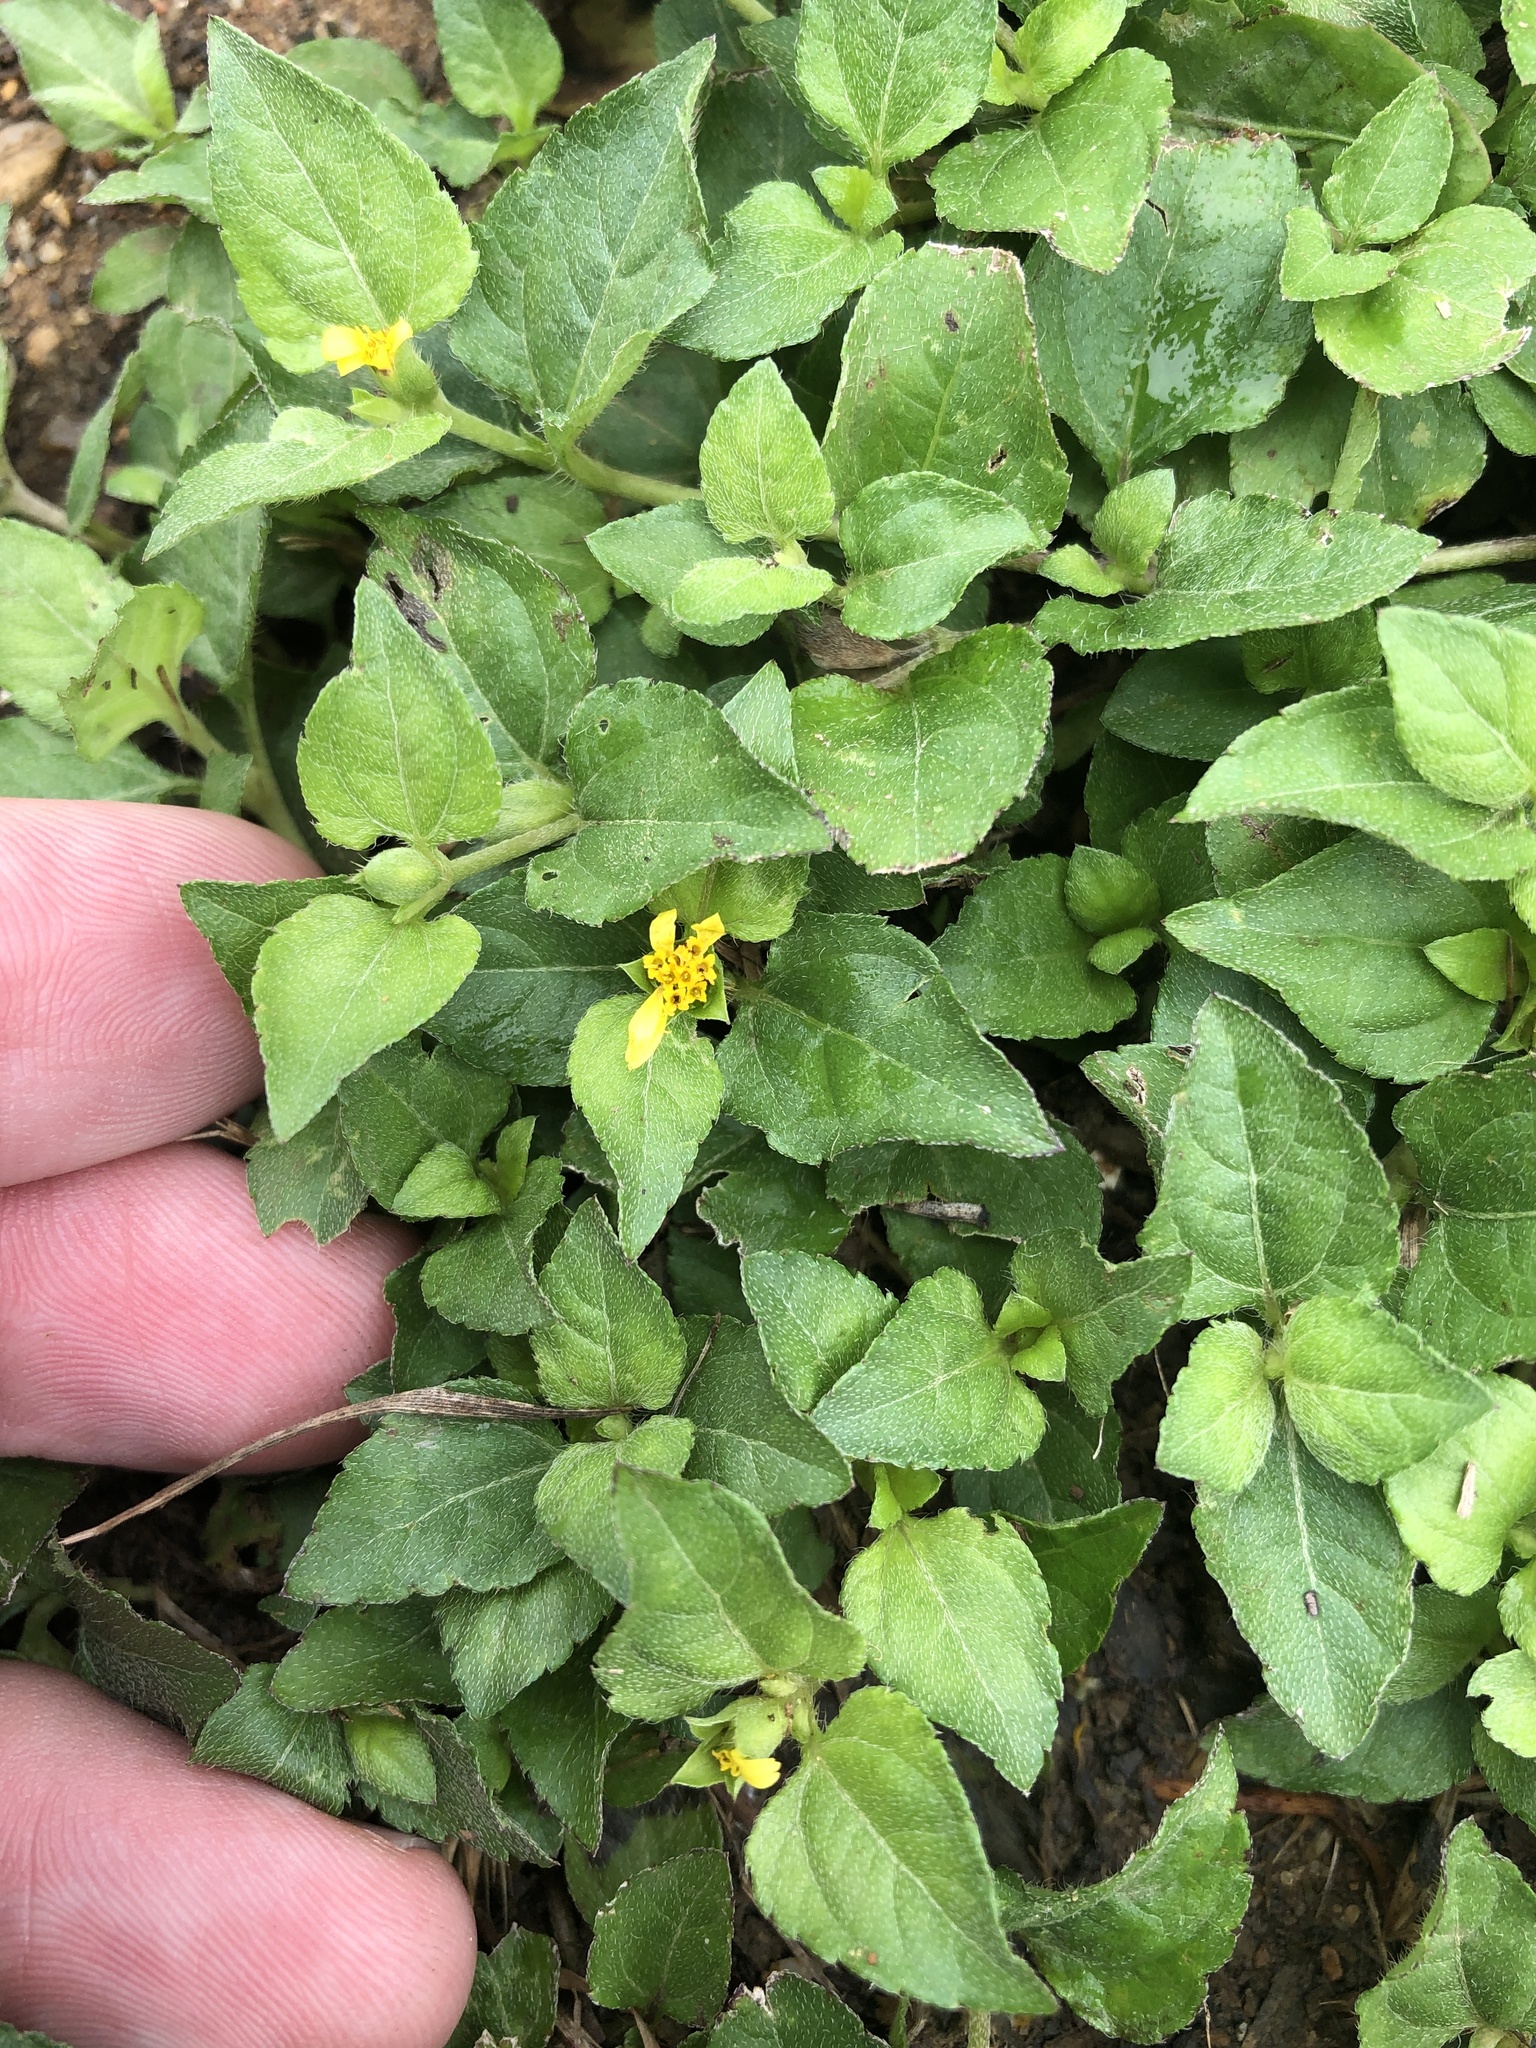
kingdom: Plantae
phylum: Tracheophyta
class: Magnoliopsida
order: Asterales
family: Asteraceae
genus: Calyptocarpus
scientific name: Calyptocarpus vialis
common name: Straggler daisy
